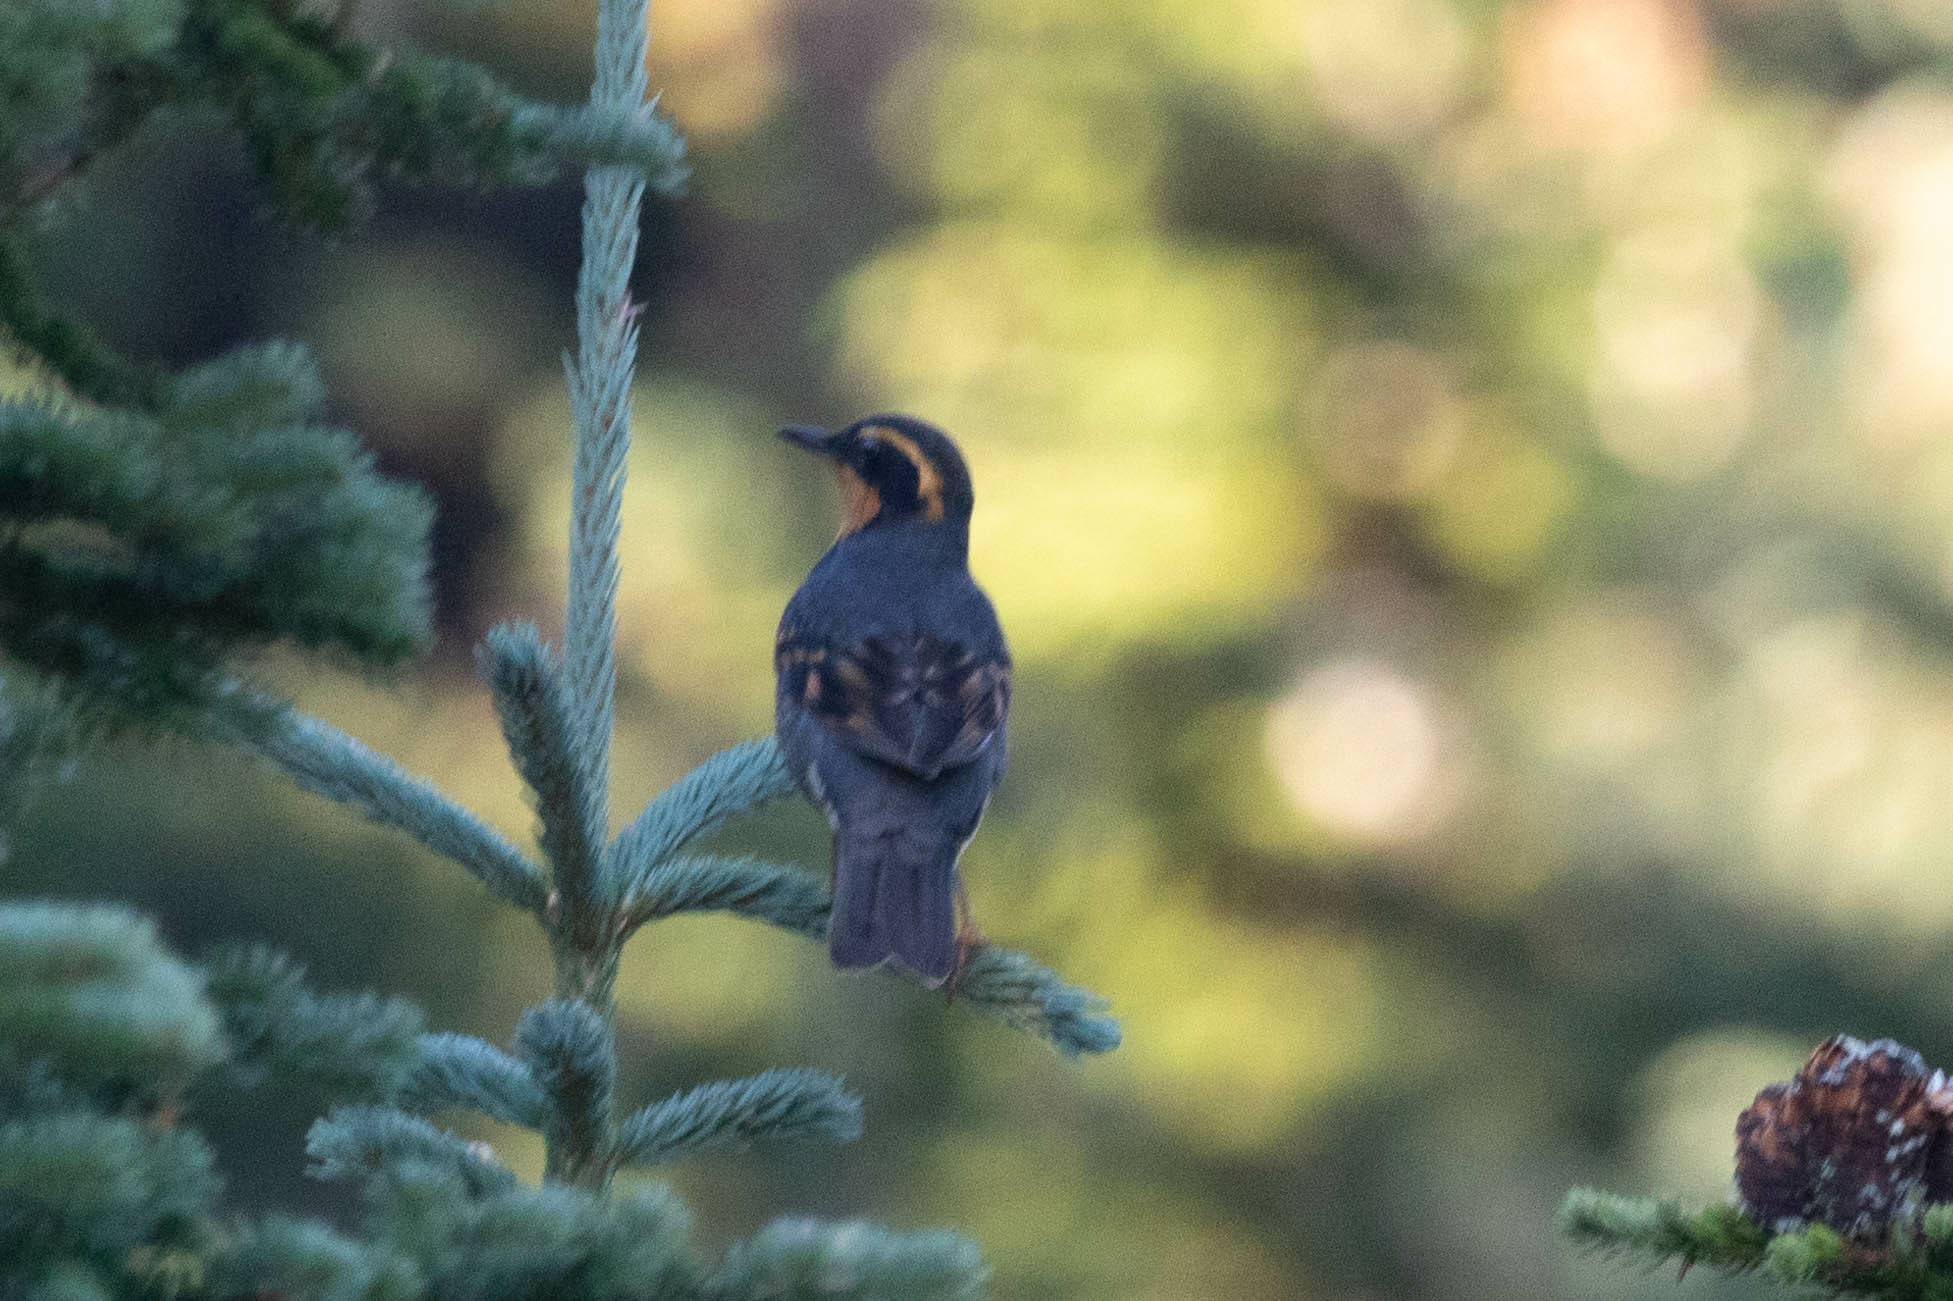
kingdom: Animalia
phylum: Chordata
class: Aves
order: Passeriformes
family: Turdidae
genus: Ixoreus
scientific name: Ixoreus naevius
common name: Varied thrush
